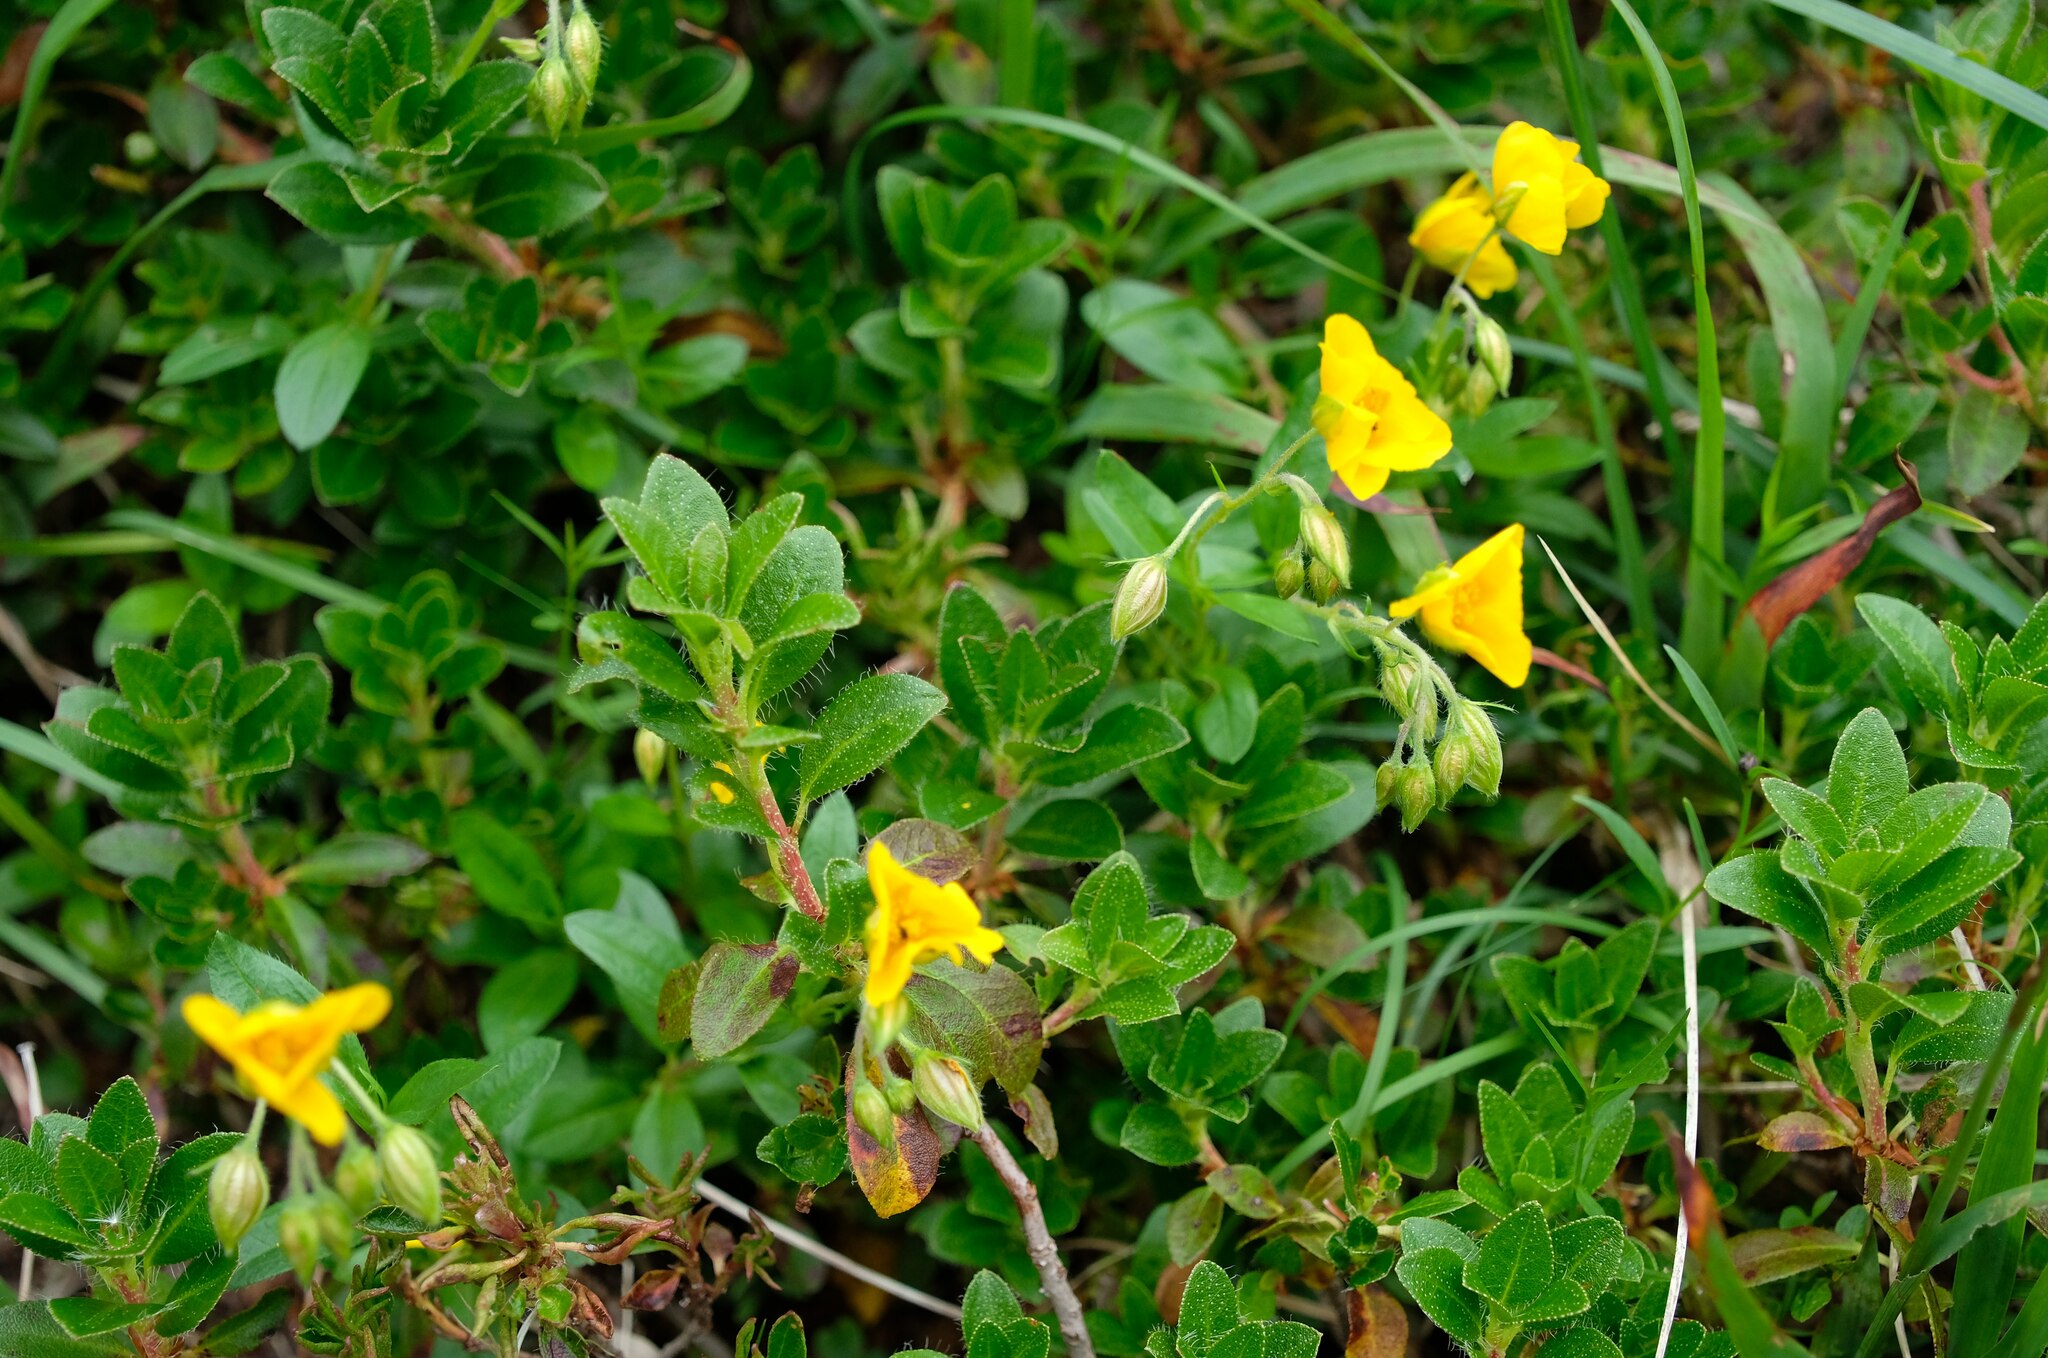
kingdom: Plantae
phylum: Tracheophyta
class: Magnoliopsida
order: Malvales
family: Cistaceae
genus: Helianthemum
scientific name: Helianthemum nummularium
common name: Common rock-rose
